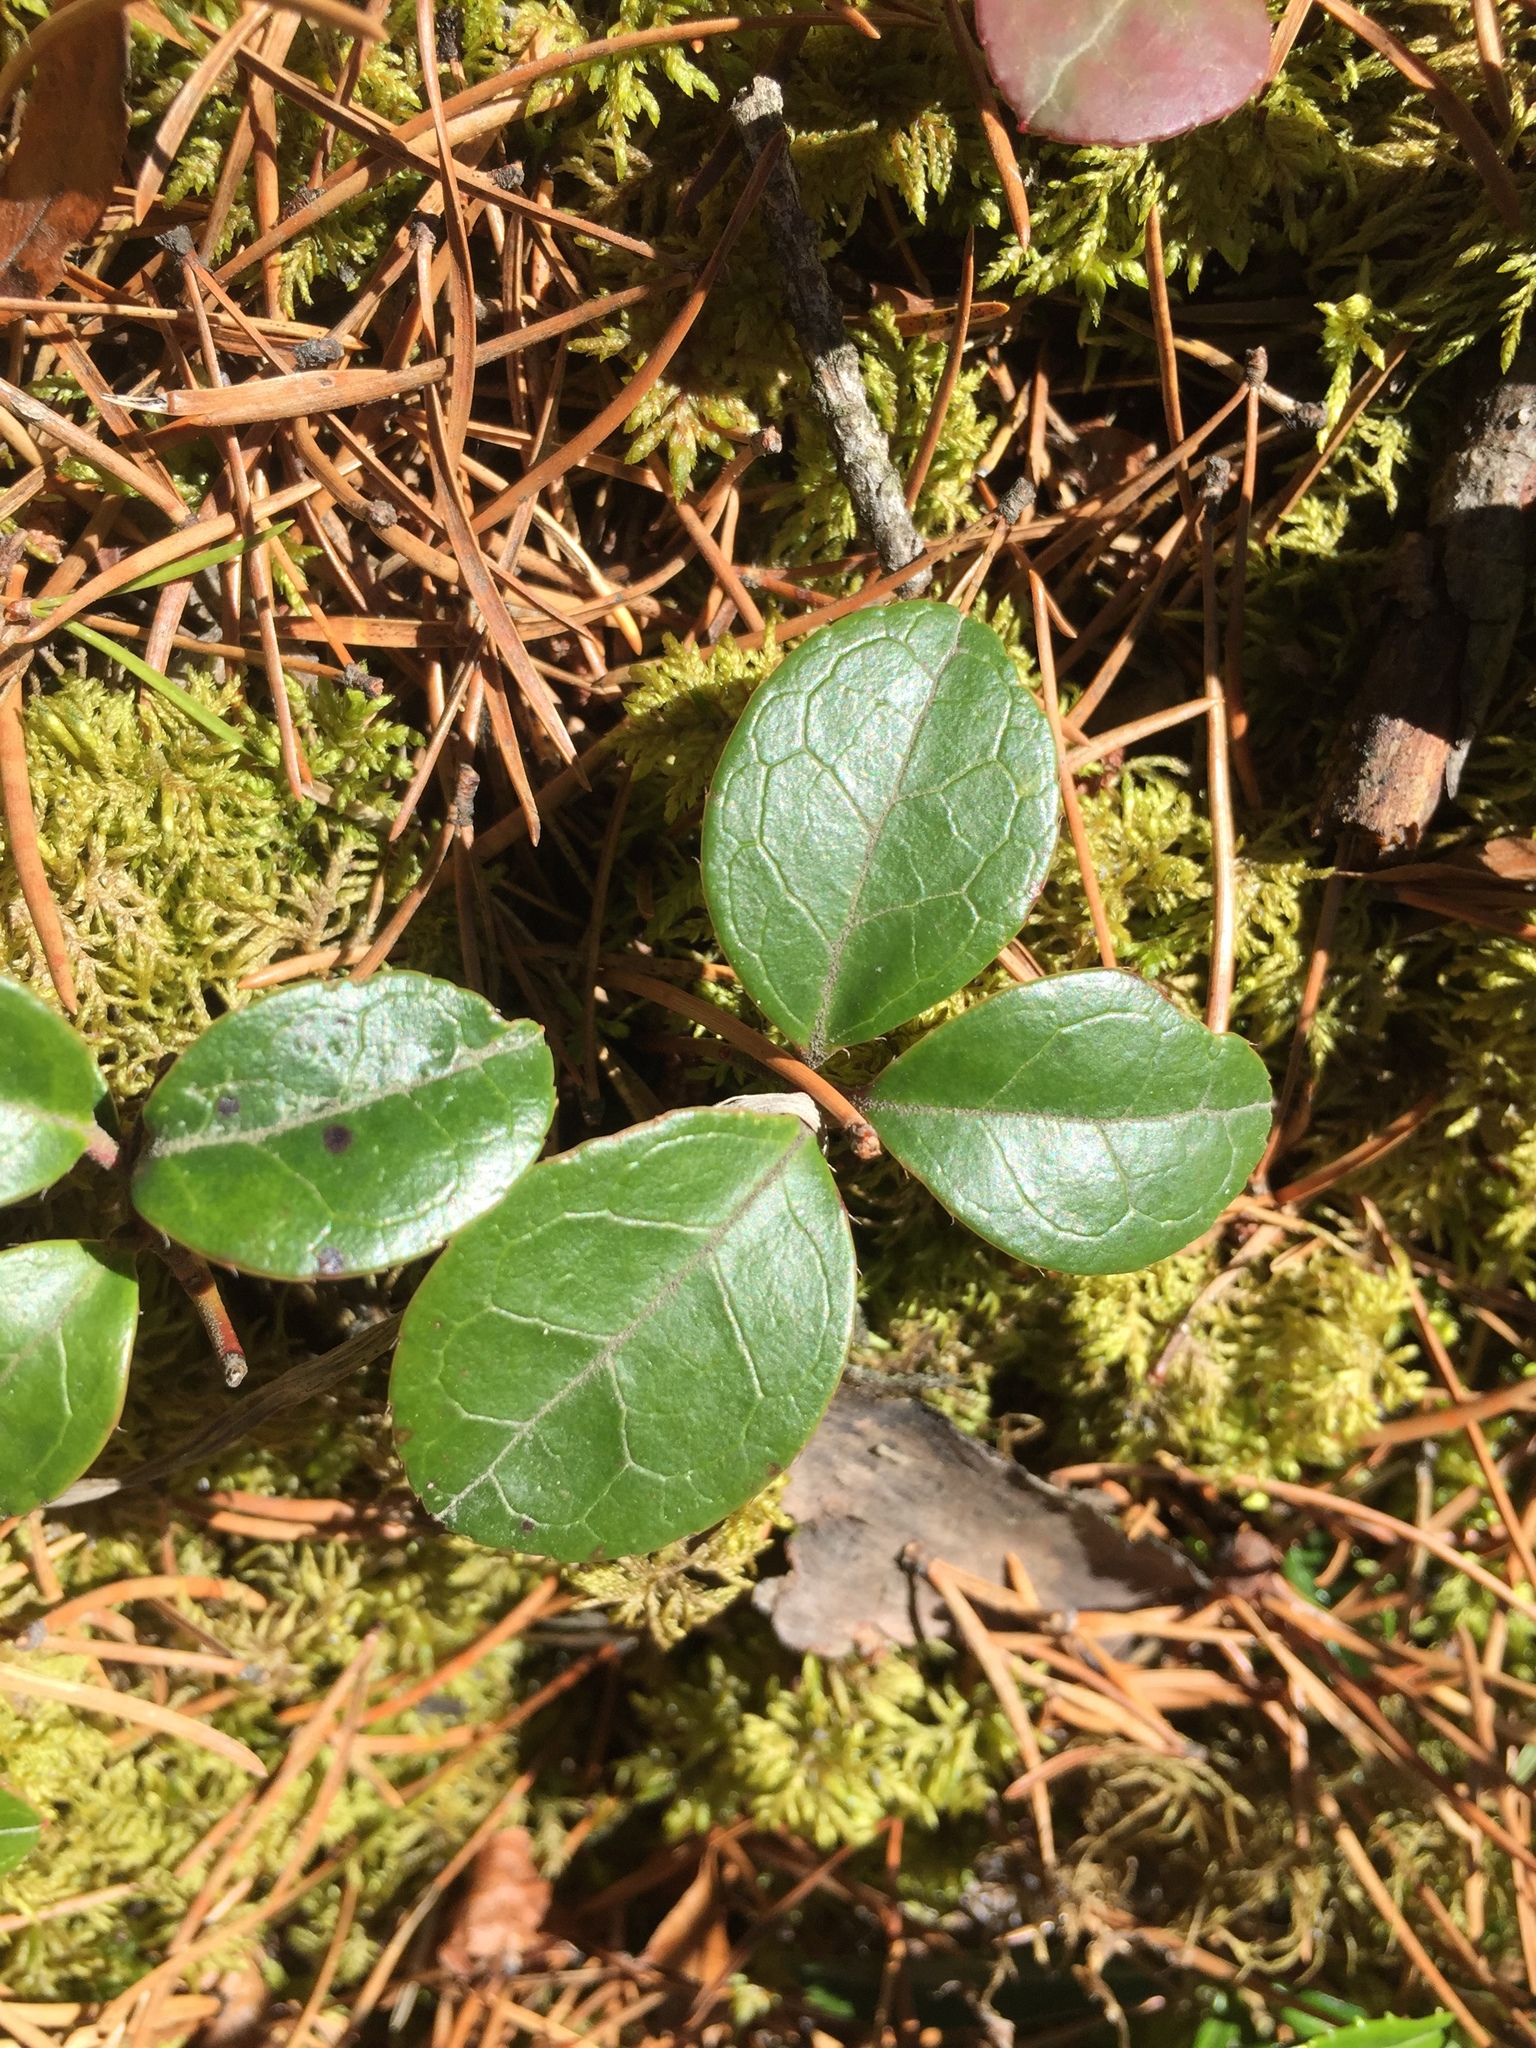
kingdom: Plantae
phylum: Tracheophyta
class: Magnoliopsida
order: Ericales
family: Ericaceae
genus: Gaultheria
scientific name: Gaultheria procumbens
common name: Checkerberry
